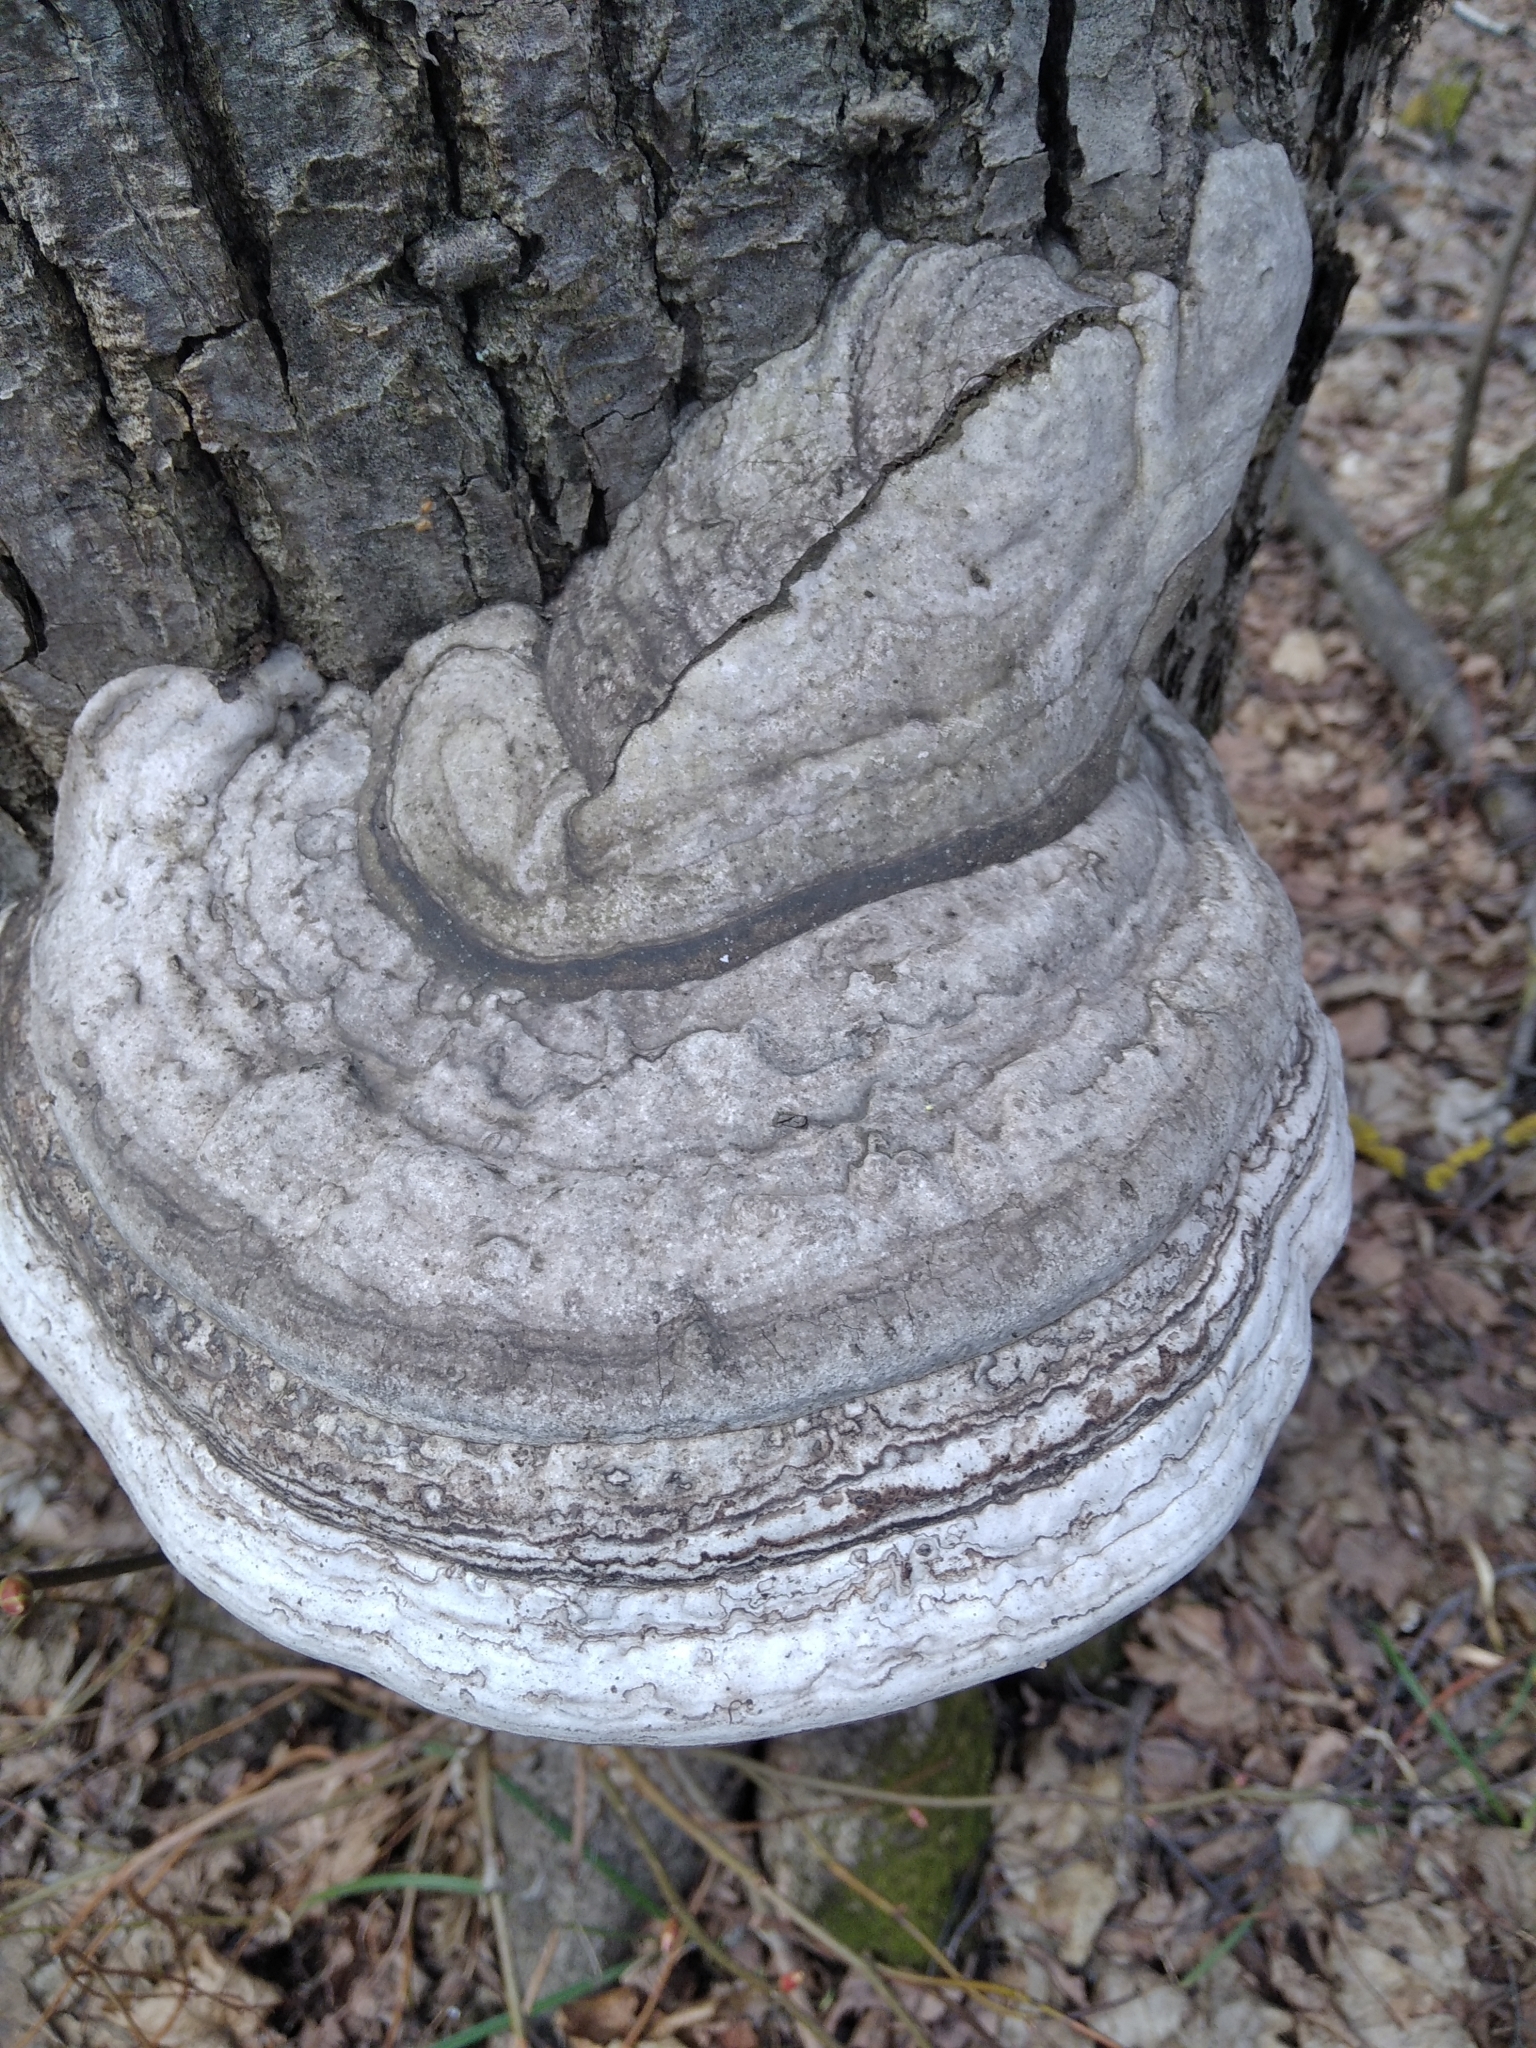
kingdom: Fungi
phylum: Basidiomycota
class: Agaricomycetes
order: Polyporales
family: Polyporaceae
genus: Fomes
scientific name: Fomes fomentarius
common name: Hoof fungus
